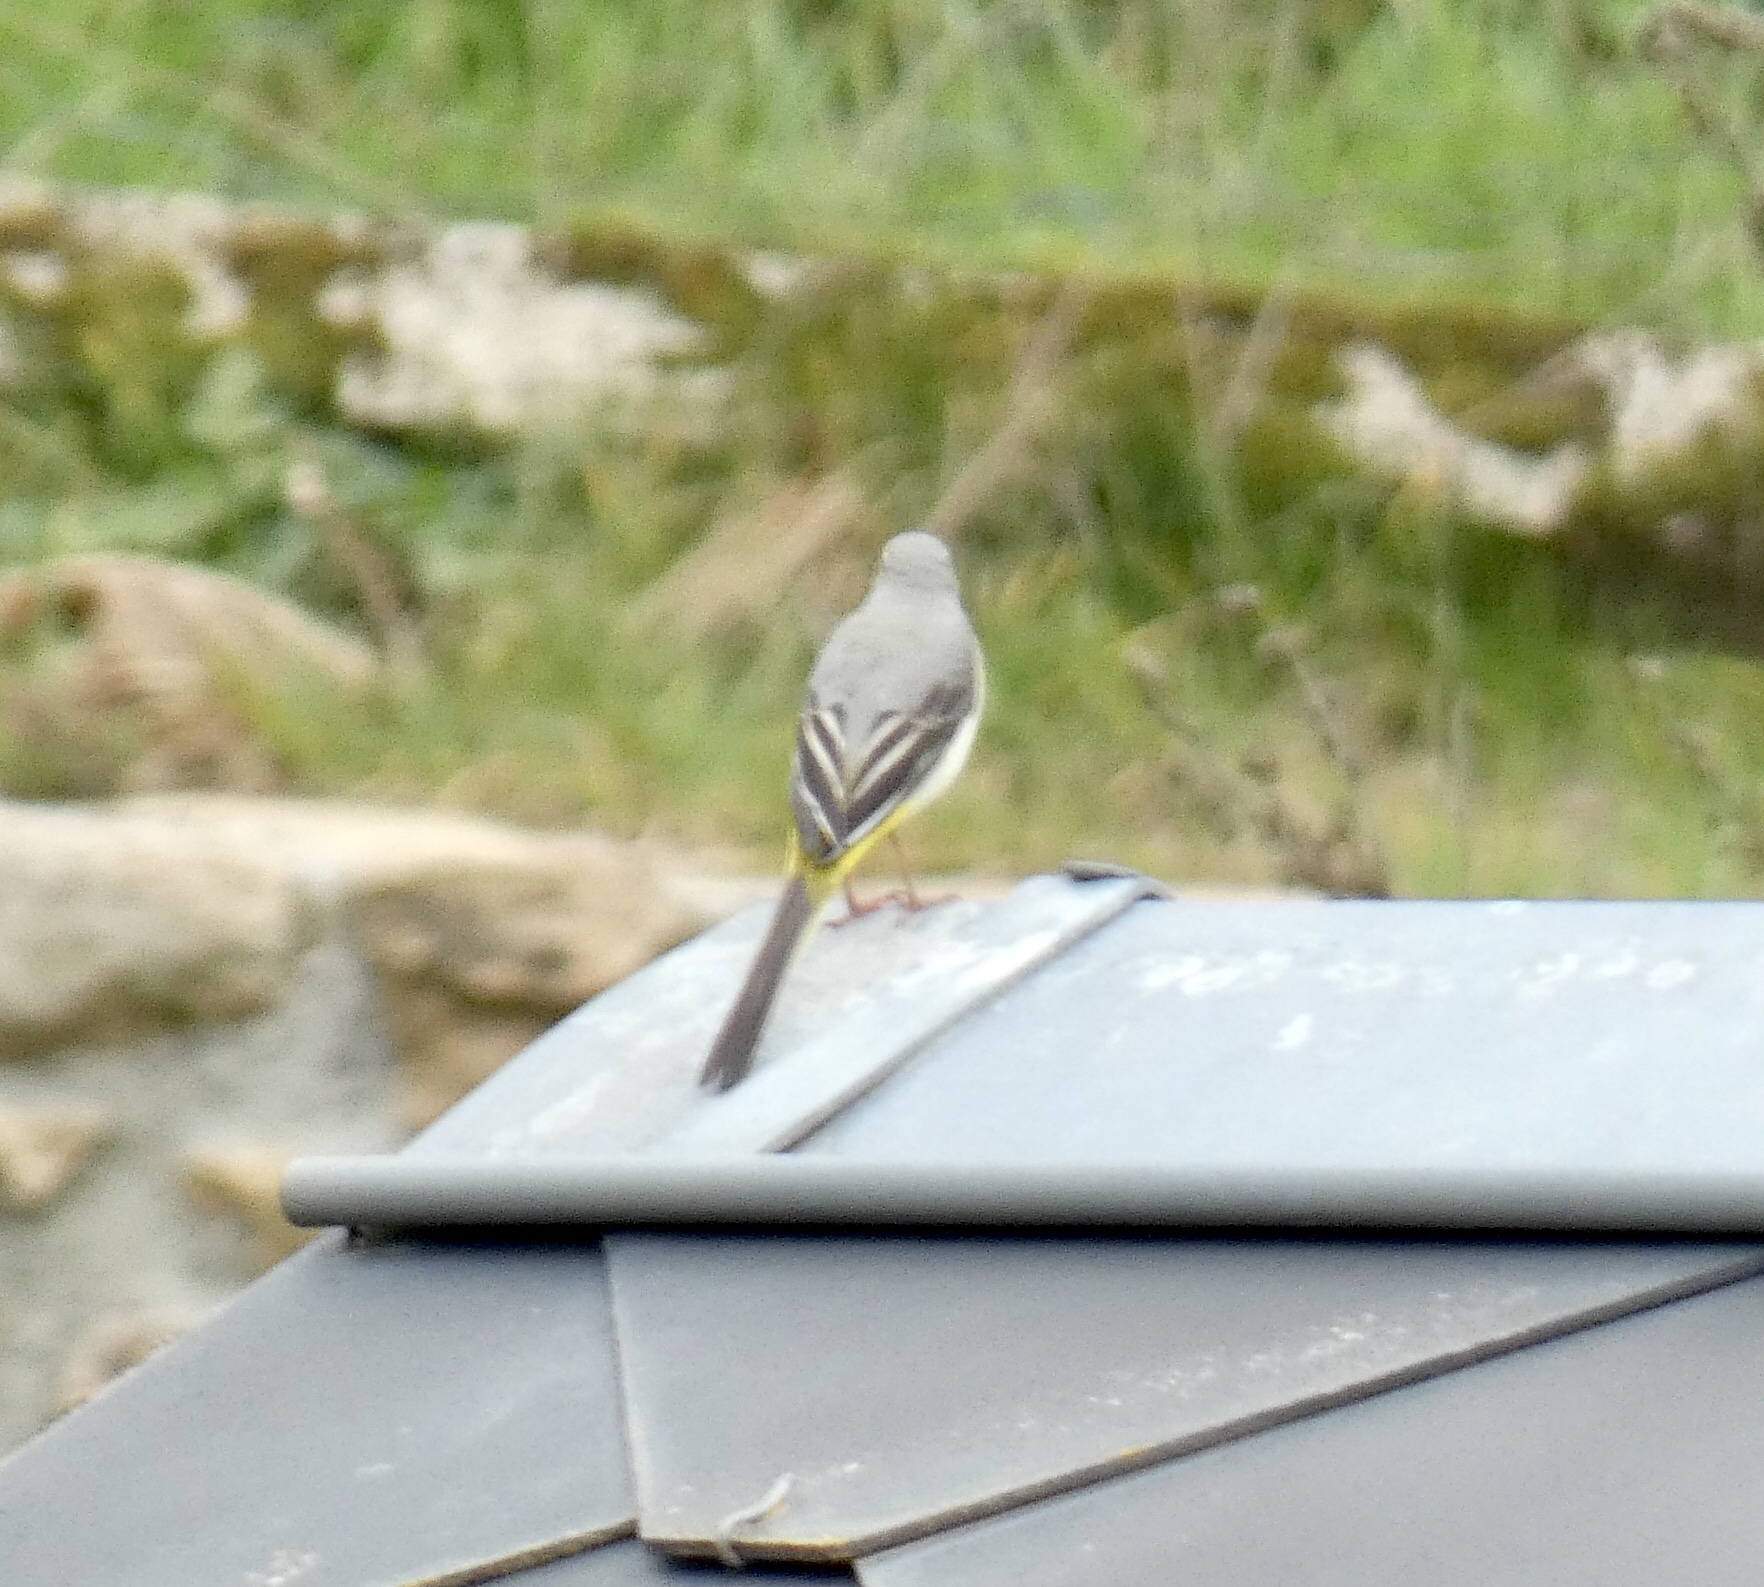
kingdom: Animalia
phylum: Chordata
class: Aves
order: Passeriformes
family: Motacillidae
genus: Motacilla
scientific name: Motacilla cinerea
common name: Grey wagtail
